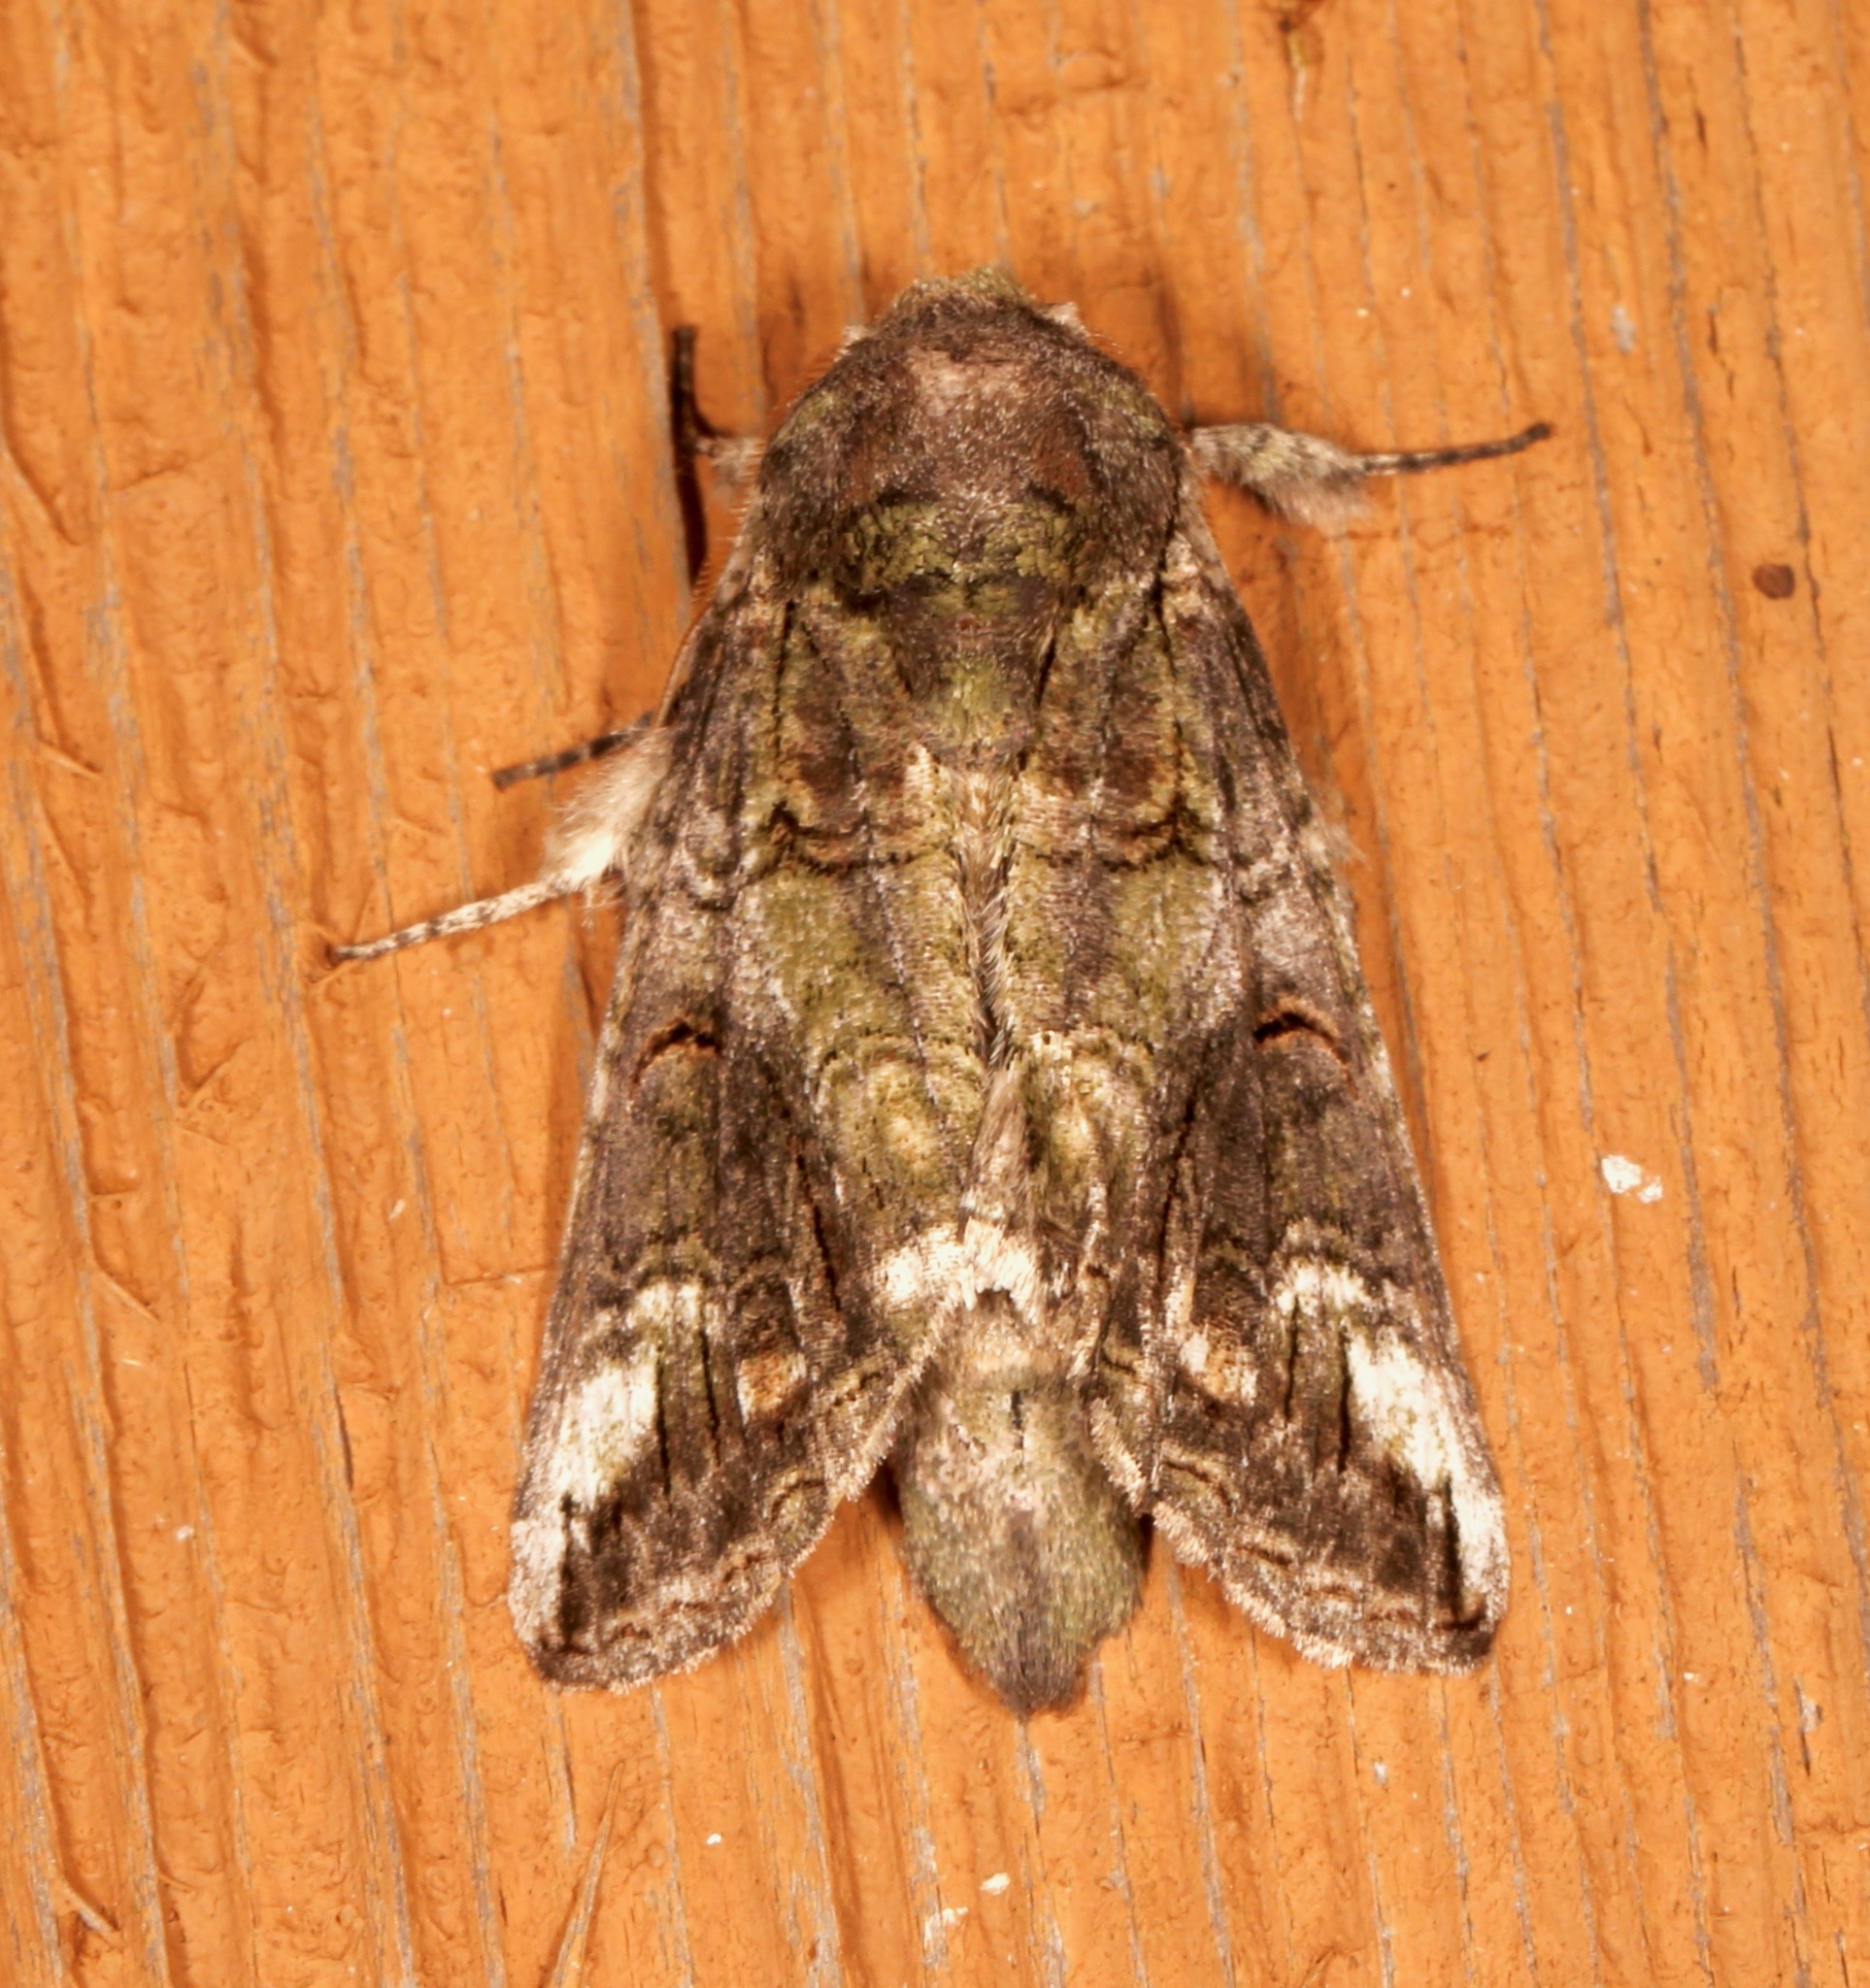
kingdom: Animalia
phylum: Arthropoda
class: Insecta
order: Lepidoptera
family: Notodontidae
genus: Heterocampa
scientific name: Heterocampa obliqua
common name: Oblique heterocampa
